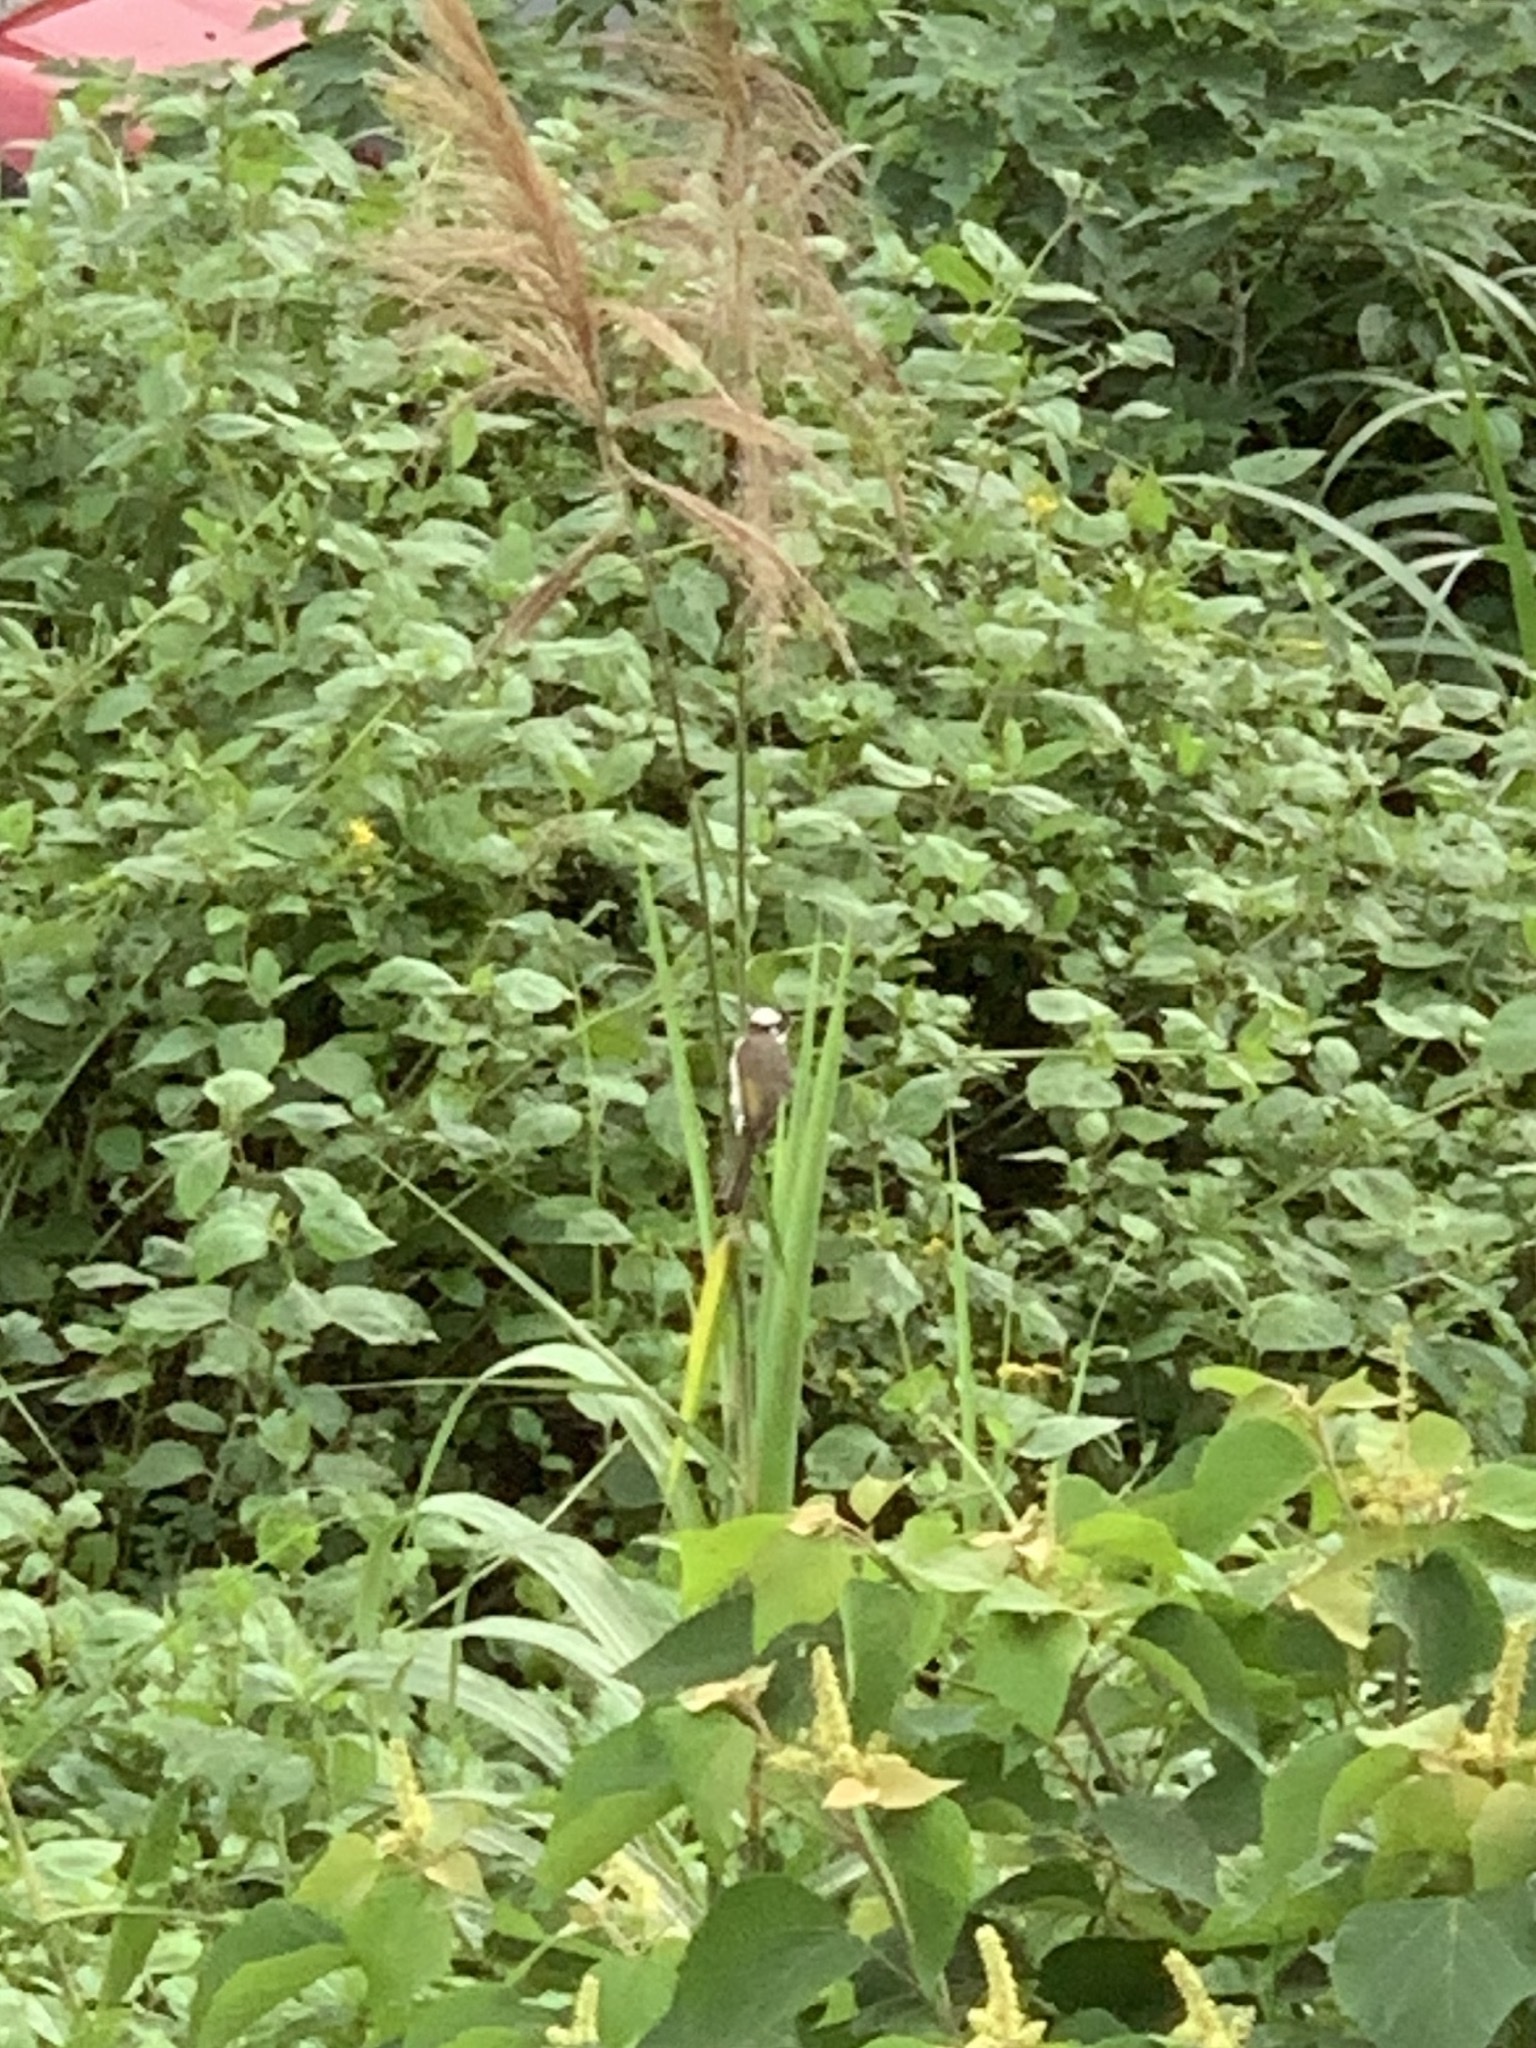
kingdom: Animalia
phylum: Chordata
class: Aves
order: Passeriformes
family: Pycnonotidae
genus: Pycnonotus
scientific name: Pycnonotus sinensis
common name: Light-vented bulbul
